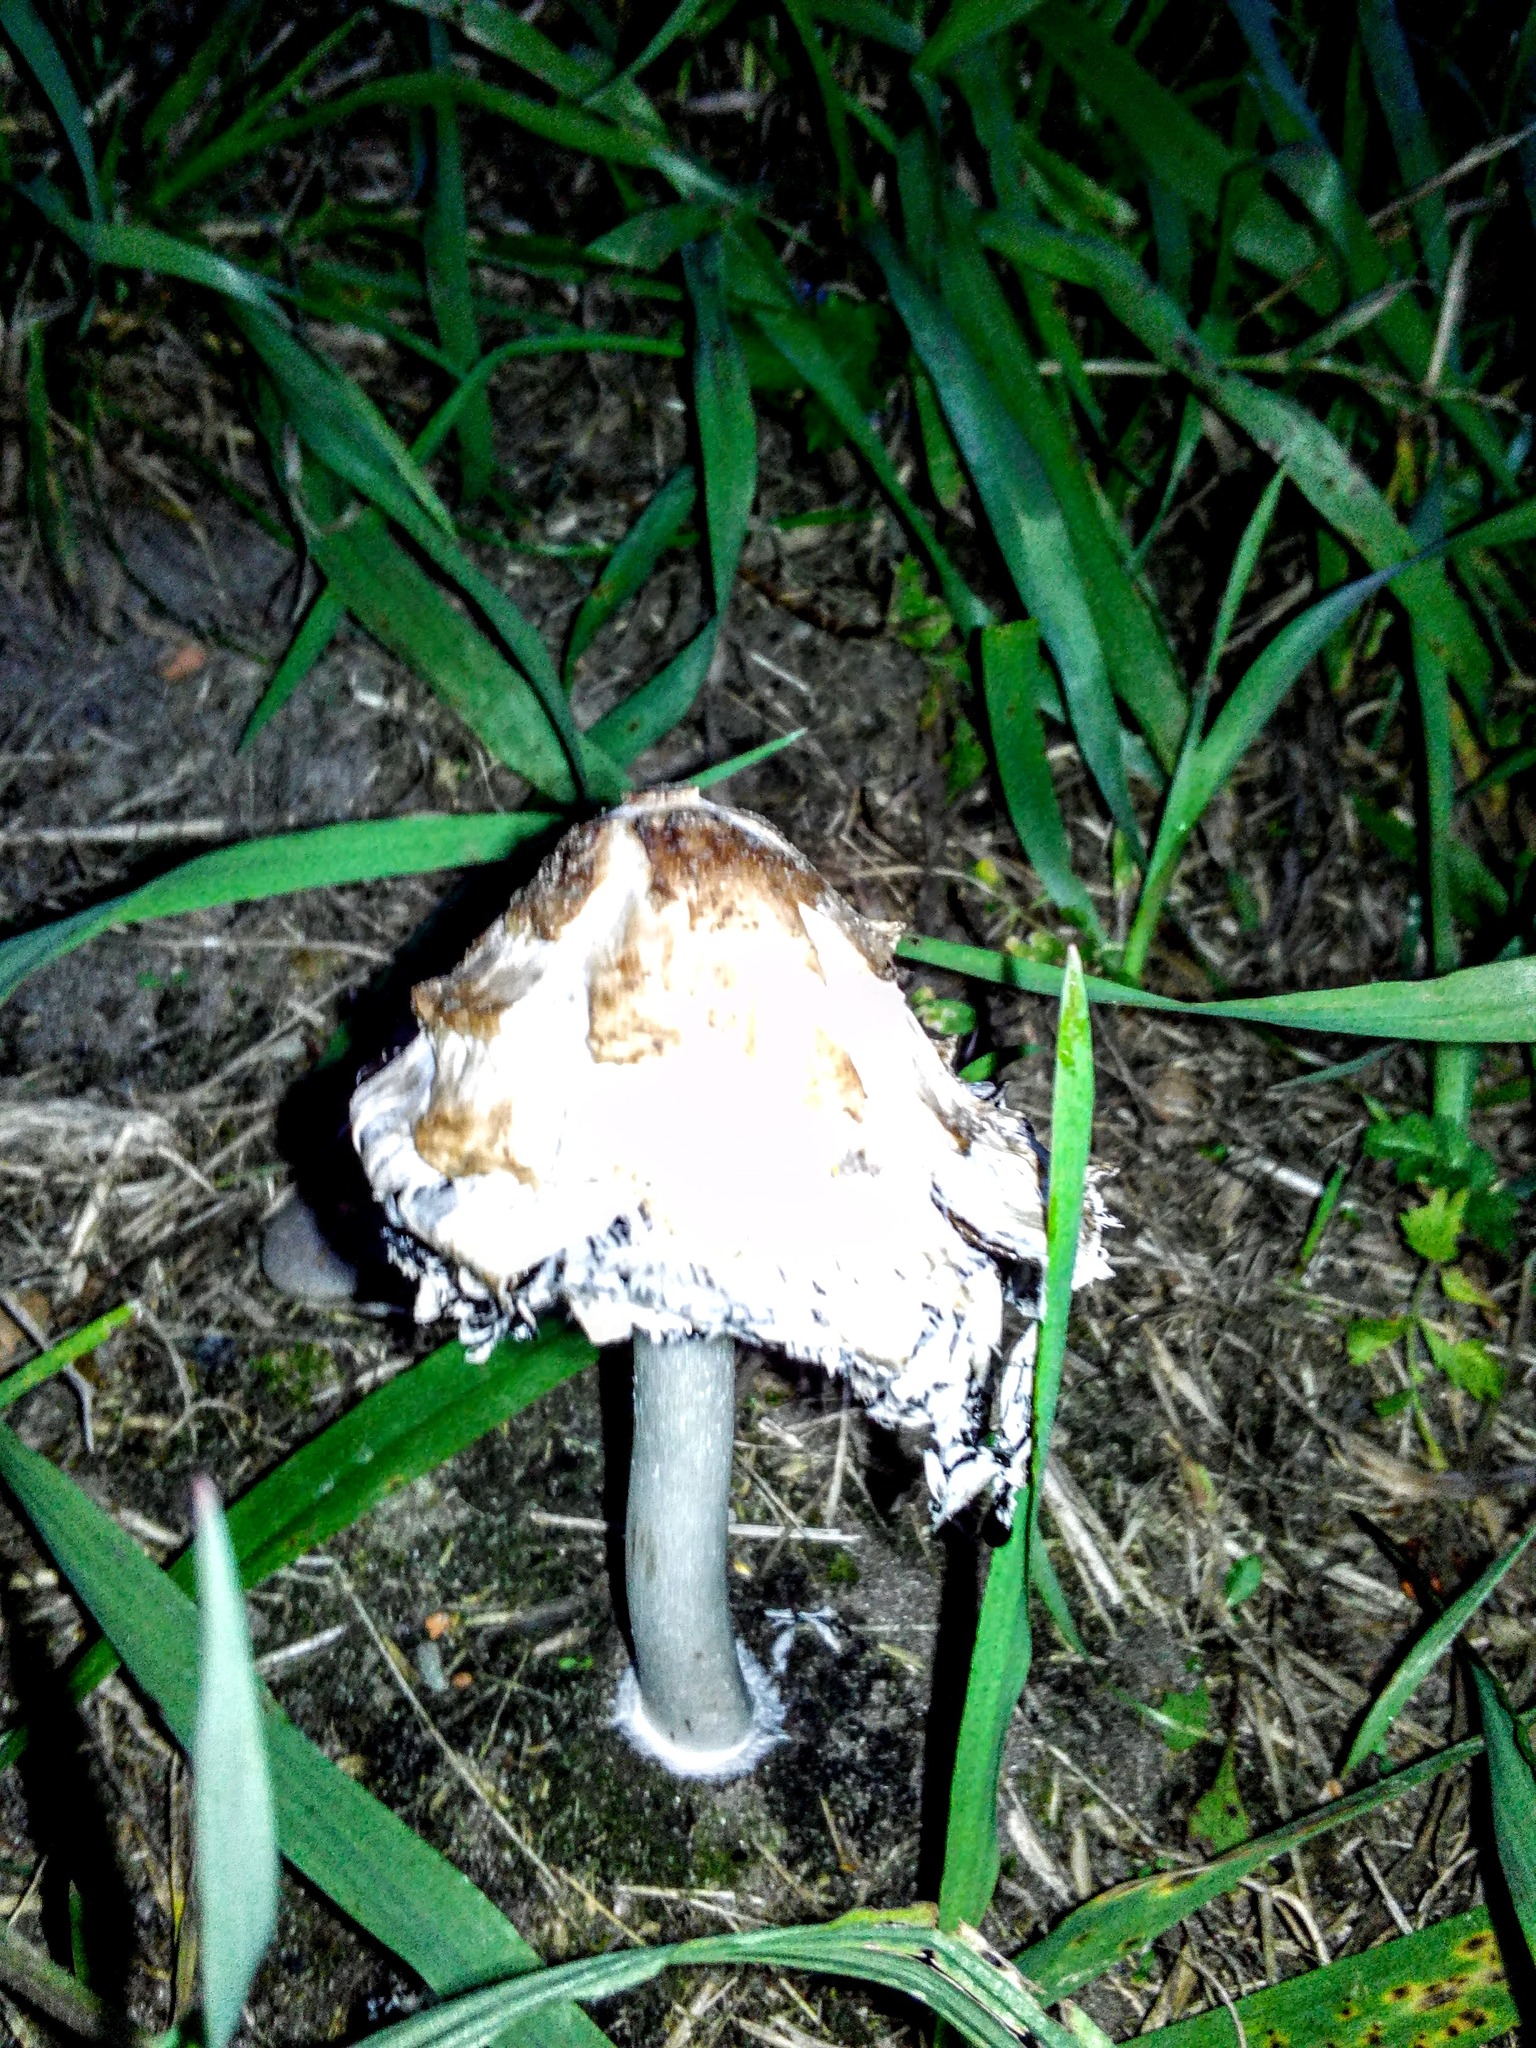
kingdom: Fungi
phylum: Basidiomycota
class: Agaricomycetes
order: Agaricales
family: Agaricaceae
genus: Coprinus
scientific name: Coprinus comatus
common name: Lawyer's wig
